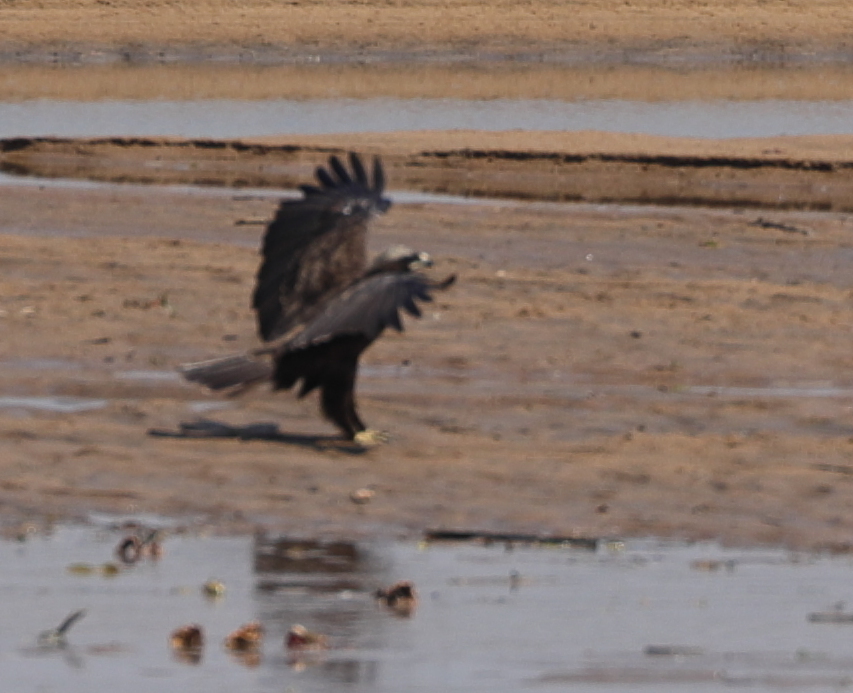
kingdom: Animalia
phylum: Chordata
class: Aves
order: Accipitriformes
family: Accipitridae
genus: Hieraaetus
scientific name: Hieraaetus wahlbergi
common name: Wahlberg's eagle
